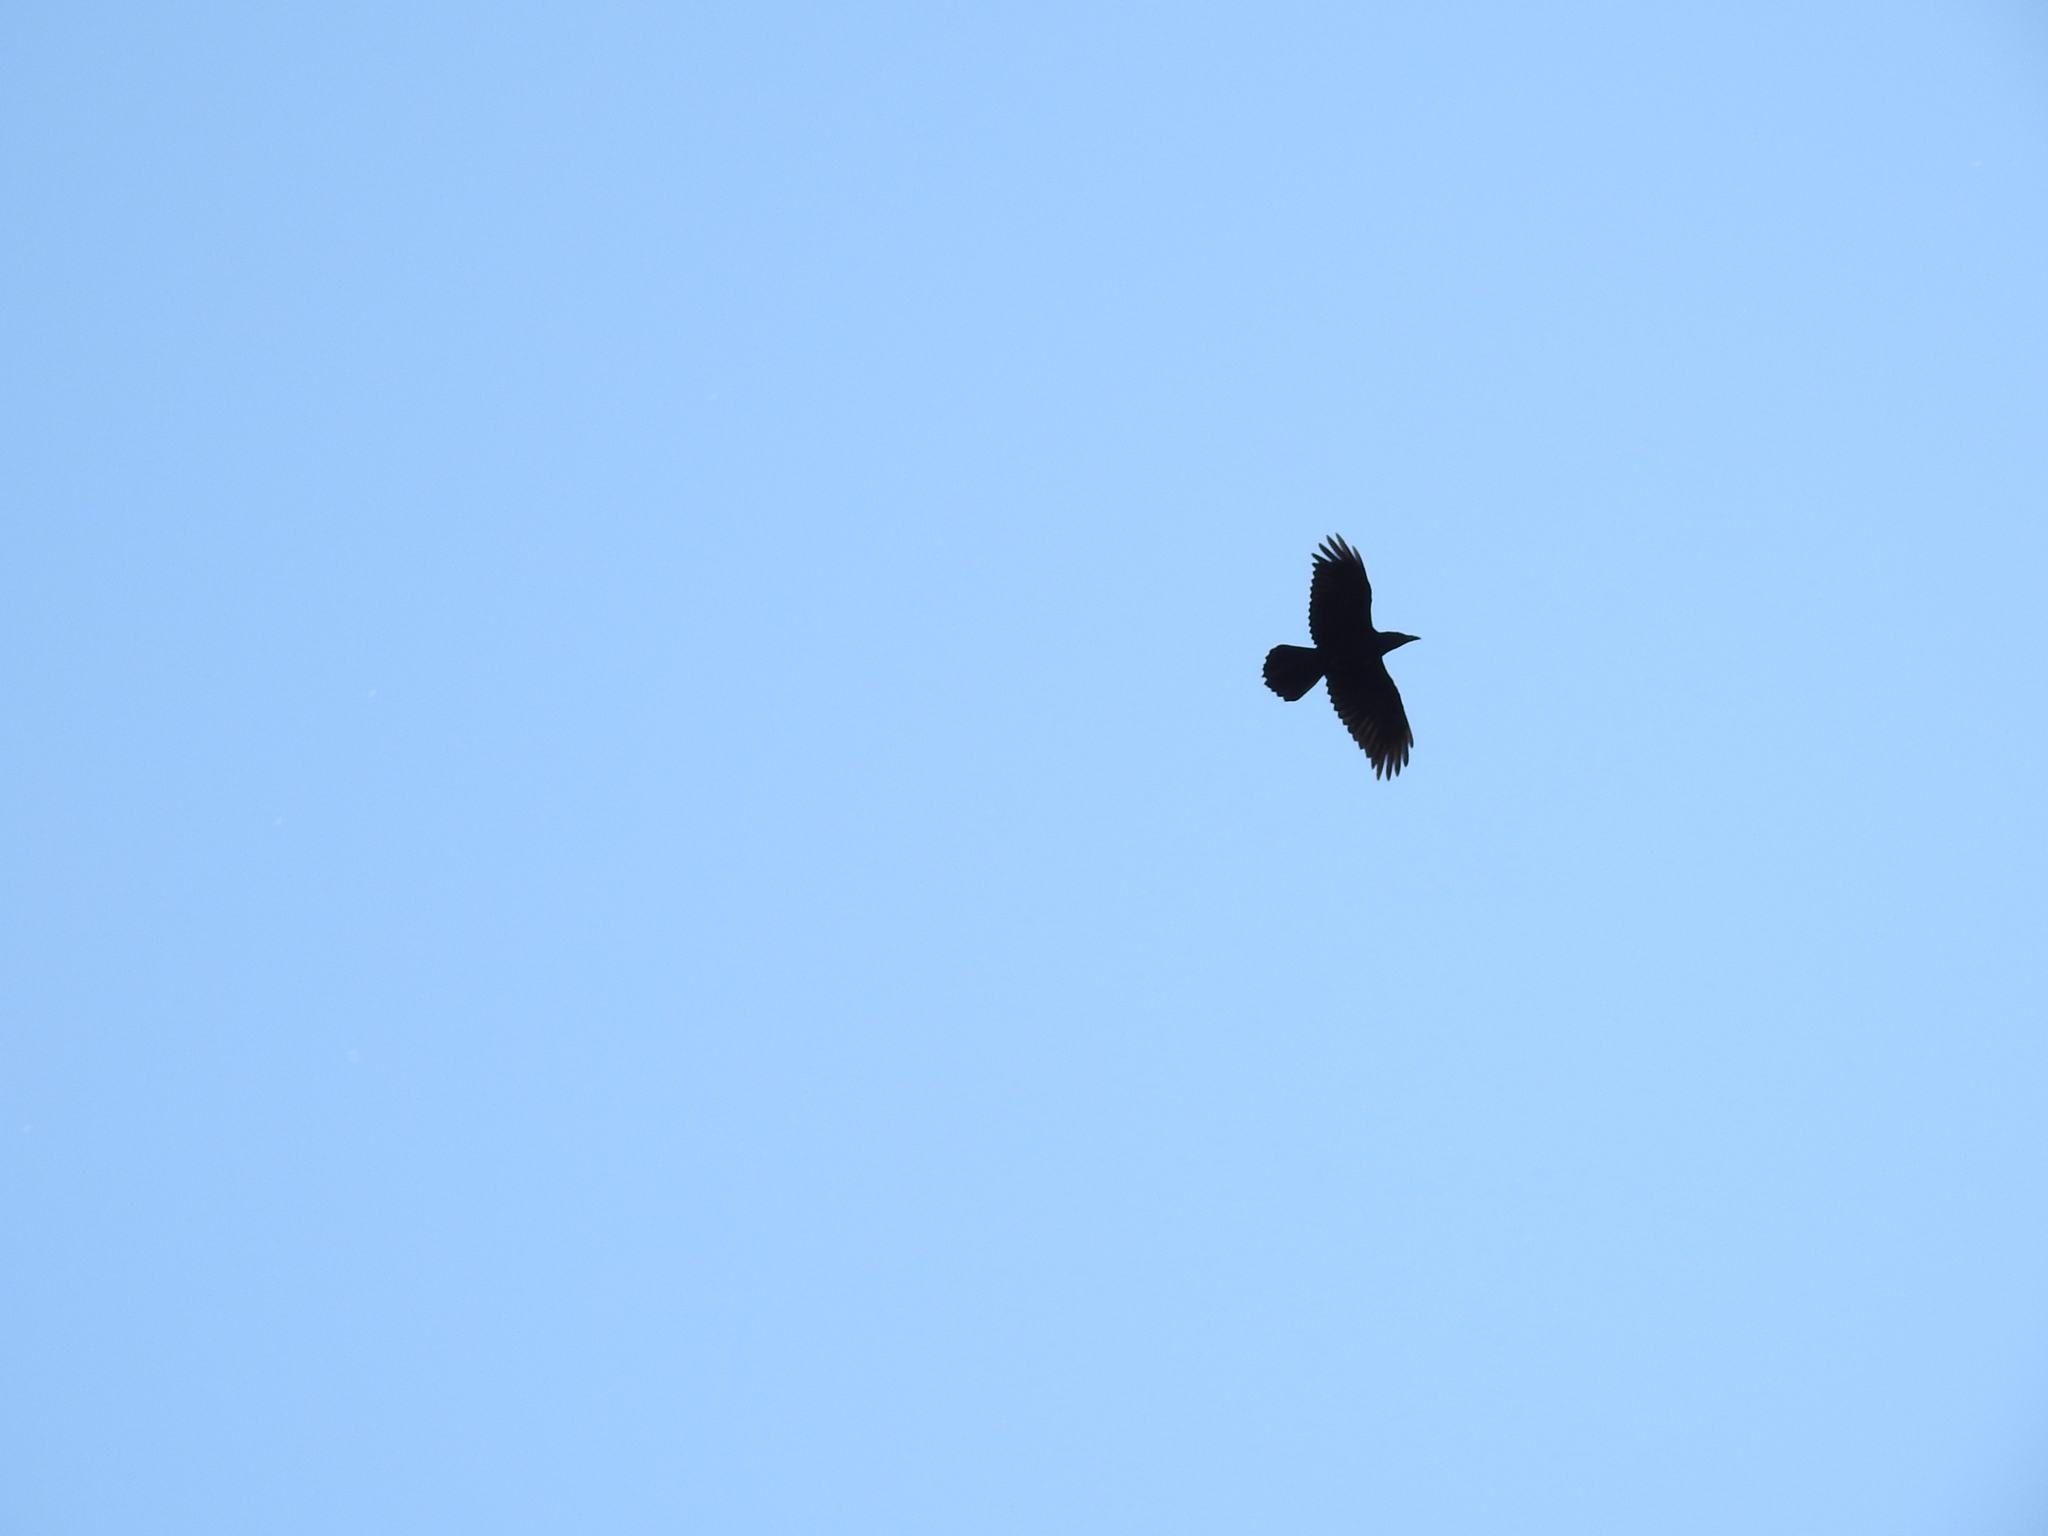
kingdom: Animalia
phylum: Chordata
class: Aves
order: Passeriformes
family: Corvidae
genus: Corvus
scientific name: Corvus corax
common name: Common raven
